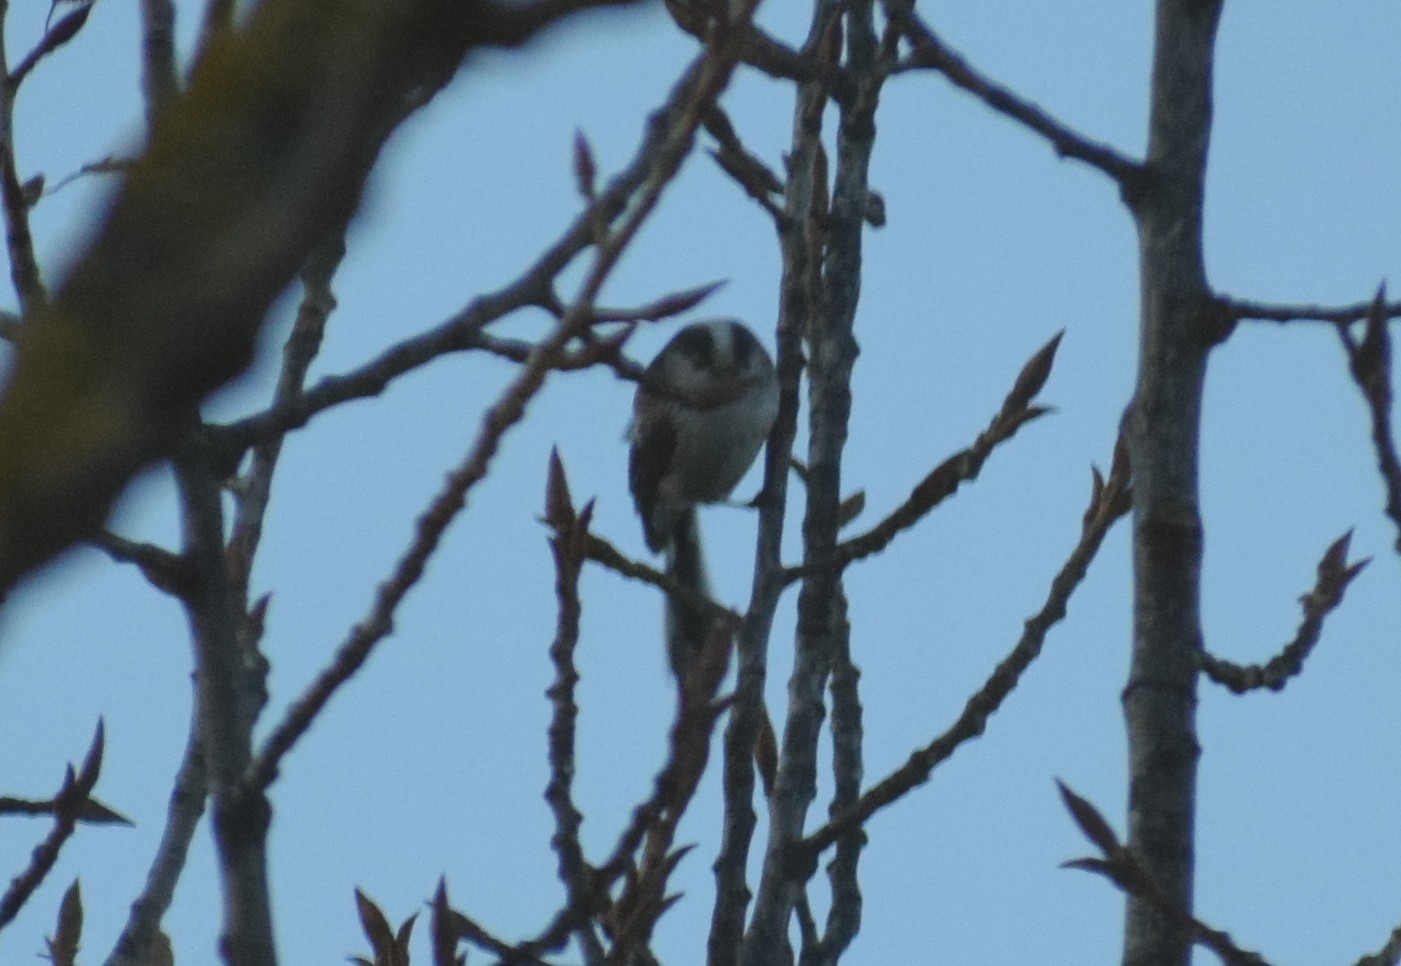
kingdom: Animalia
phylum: Chordata
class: Aves
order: Passeriformes
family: Aegithalidae
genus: Aegithalos
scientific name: Aegithalos caudatus
